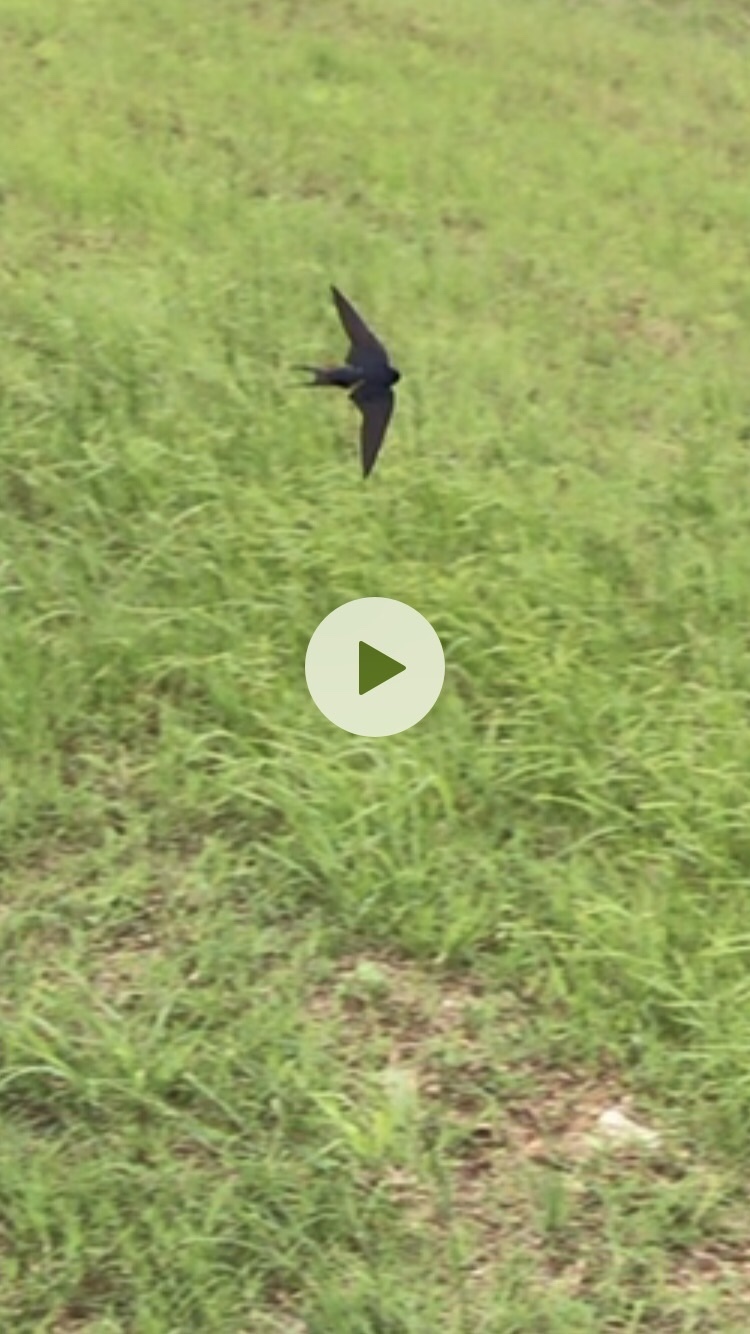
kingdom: Animalia
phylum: Chordata
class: Aves
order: Passeriformes
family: Hirundinidae
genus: Hirundo
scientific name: Hirundo rustica
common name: Barn swallow
